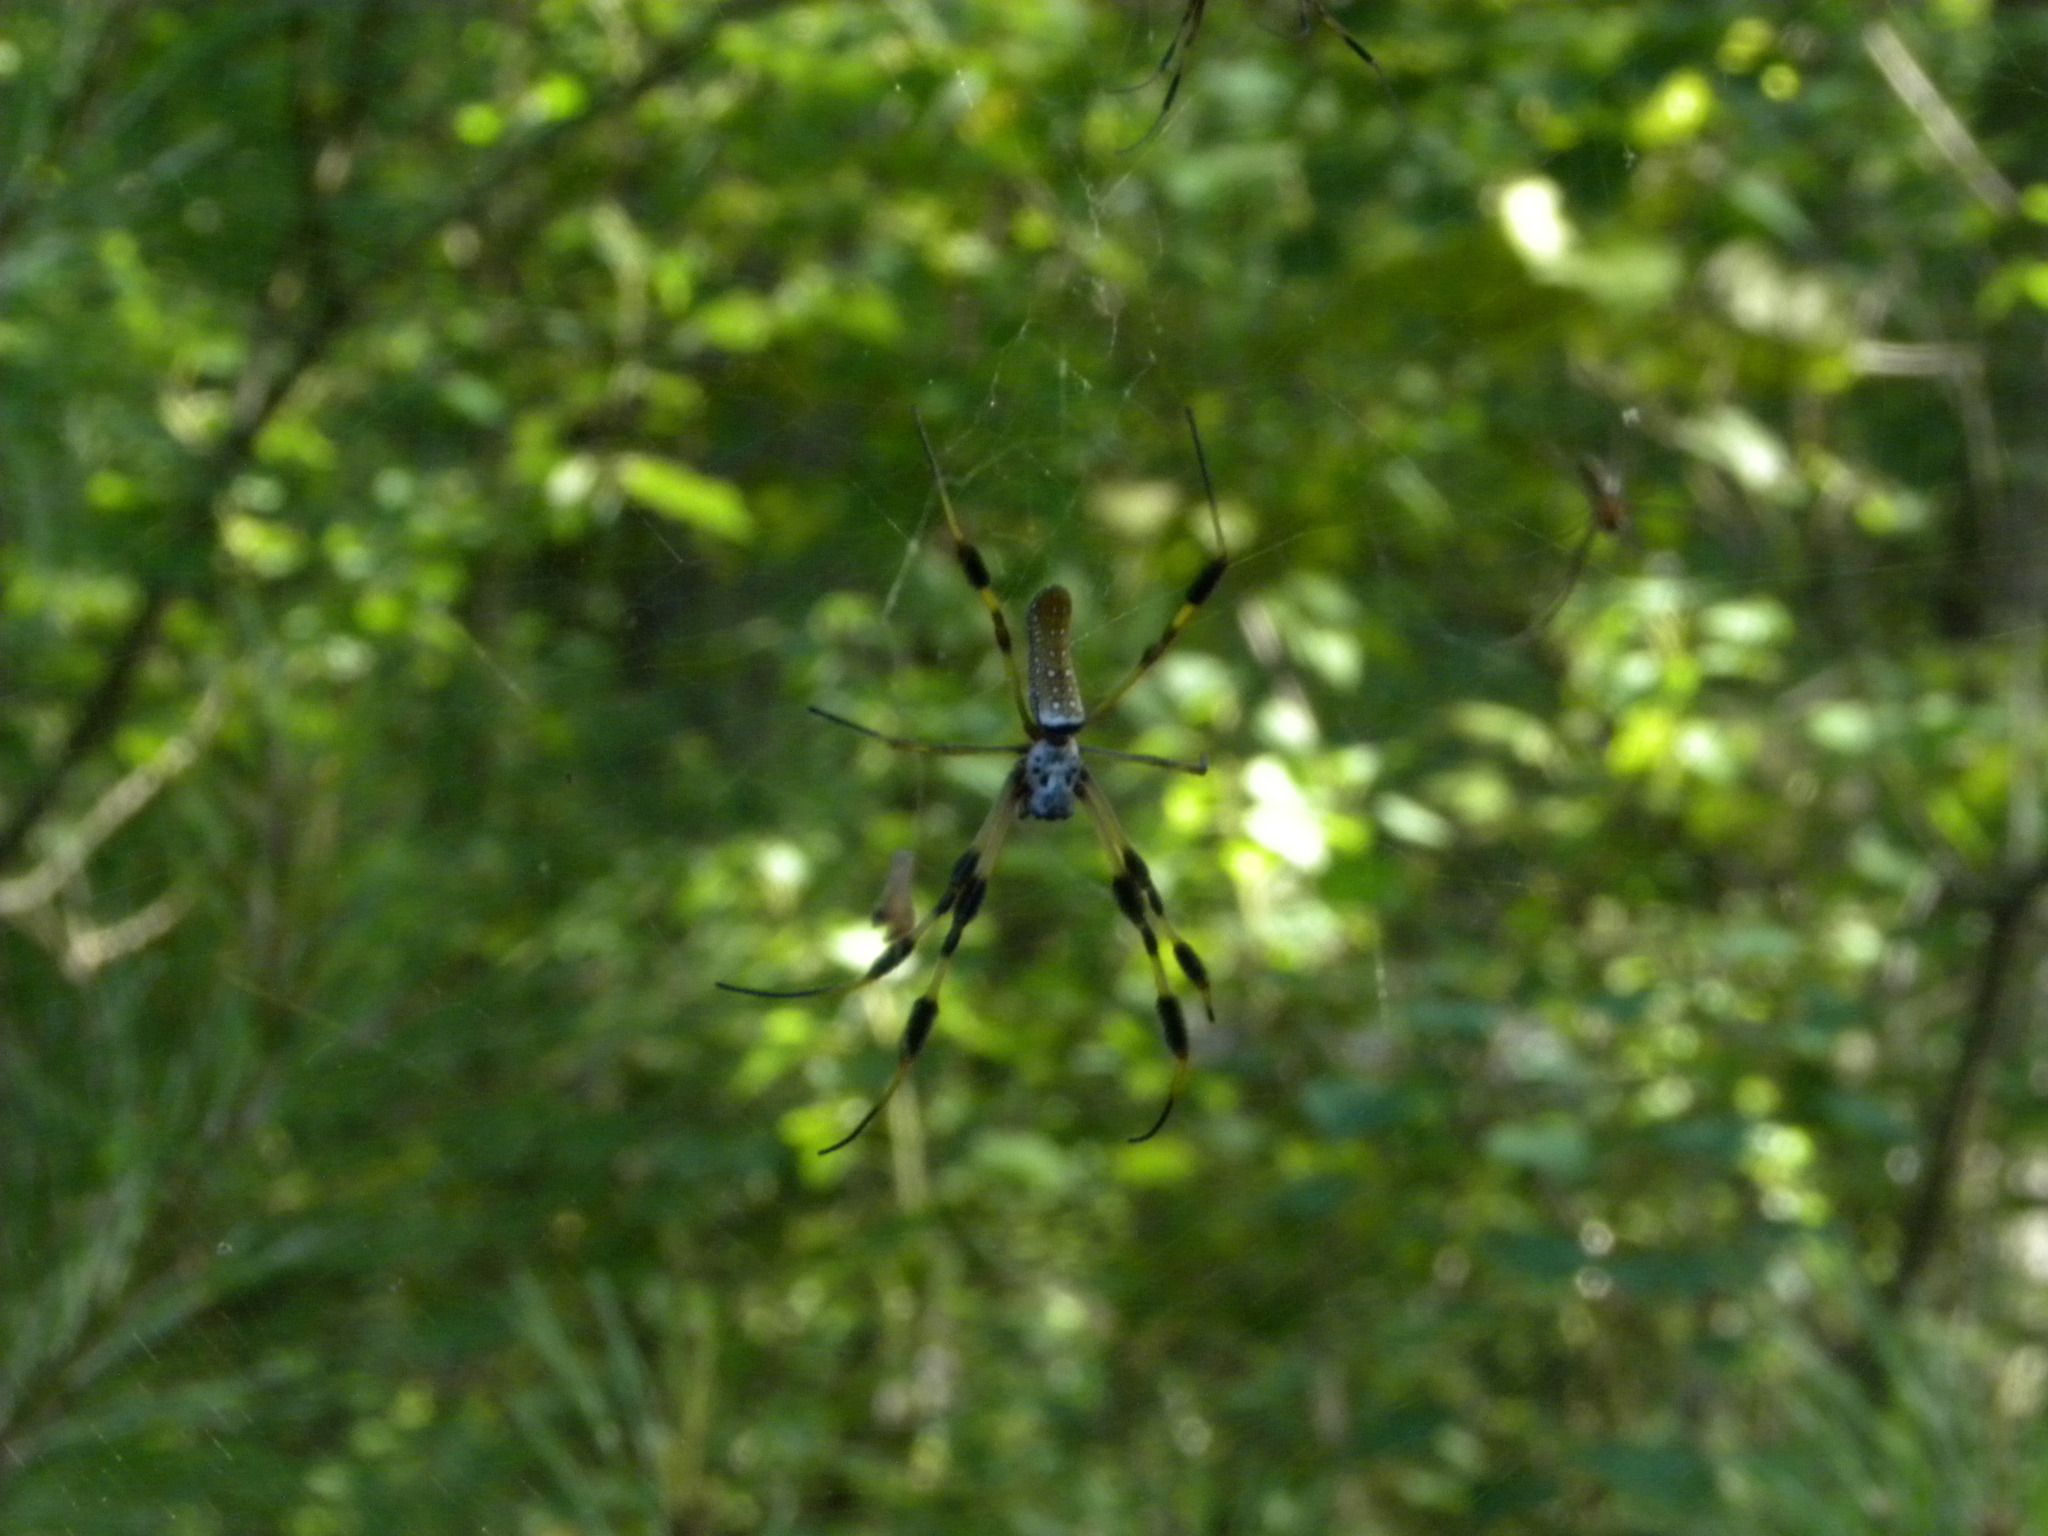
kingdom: Animalia
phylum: Arthropoda
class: Arachnida
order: Araneae
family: Araneidae
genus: Trichonephila
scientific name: Trichonephila clavipes
